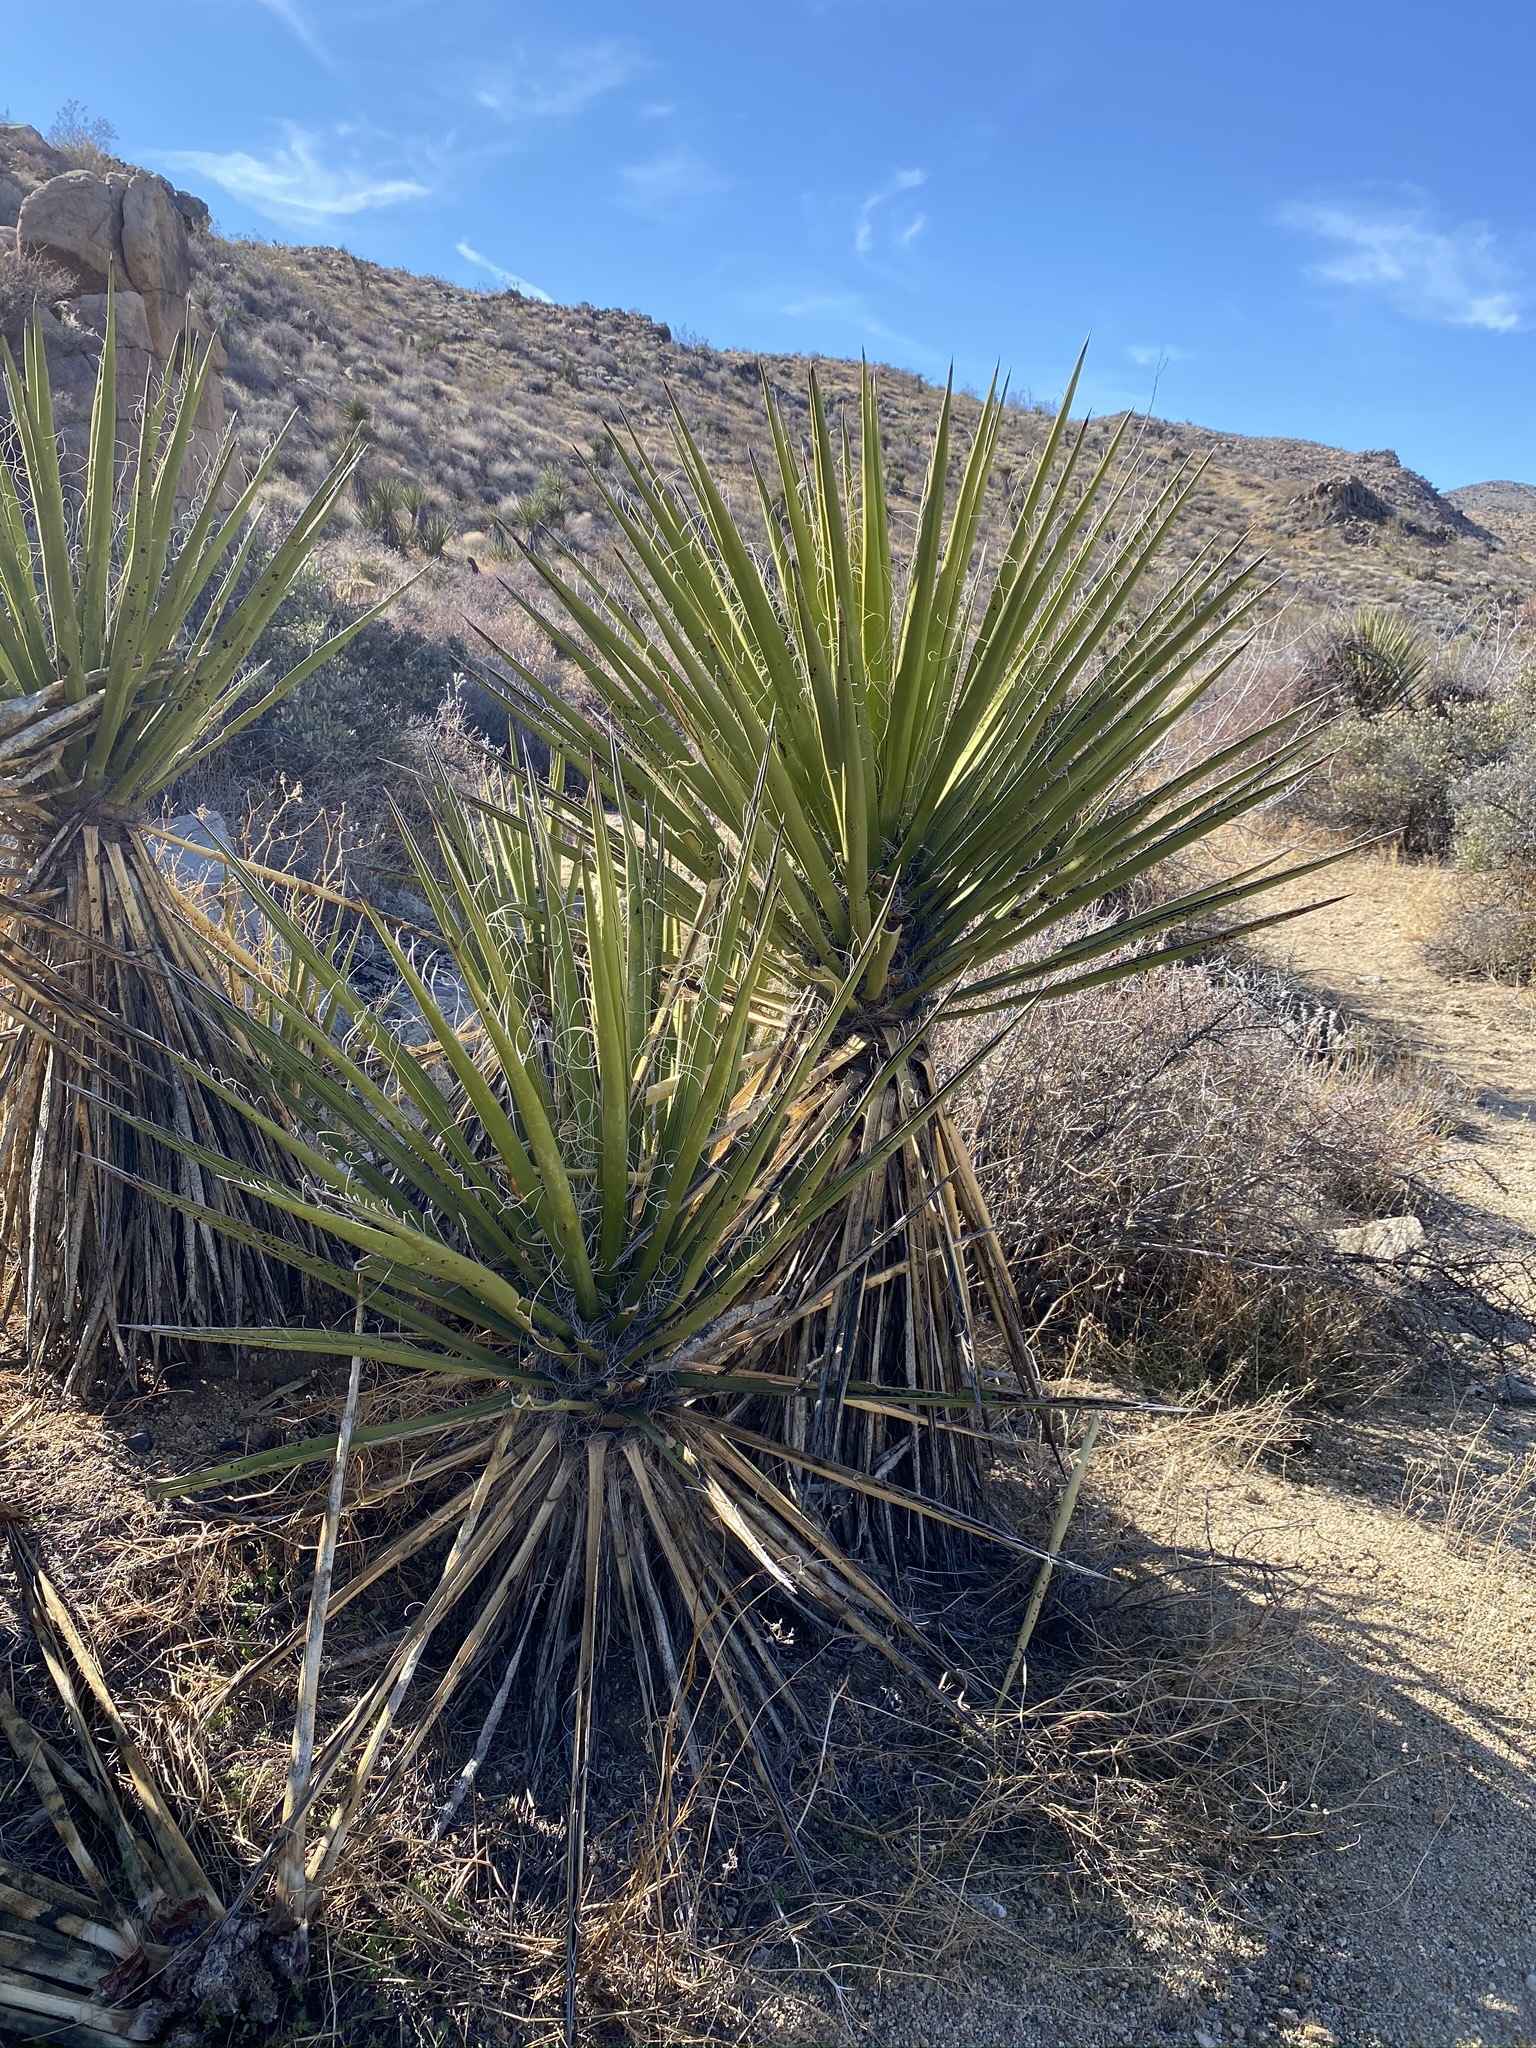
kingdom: Plantae
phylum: Tracheophyta
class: Liliopsida
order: Asparagales
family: Asparagaceae
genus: Yucca
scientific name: Yucca schidigera
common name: Mojave yucca
